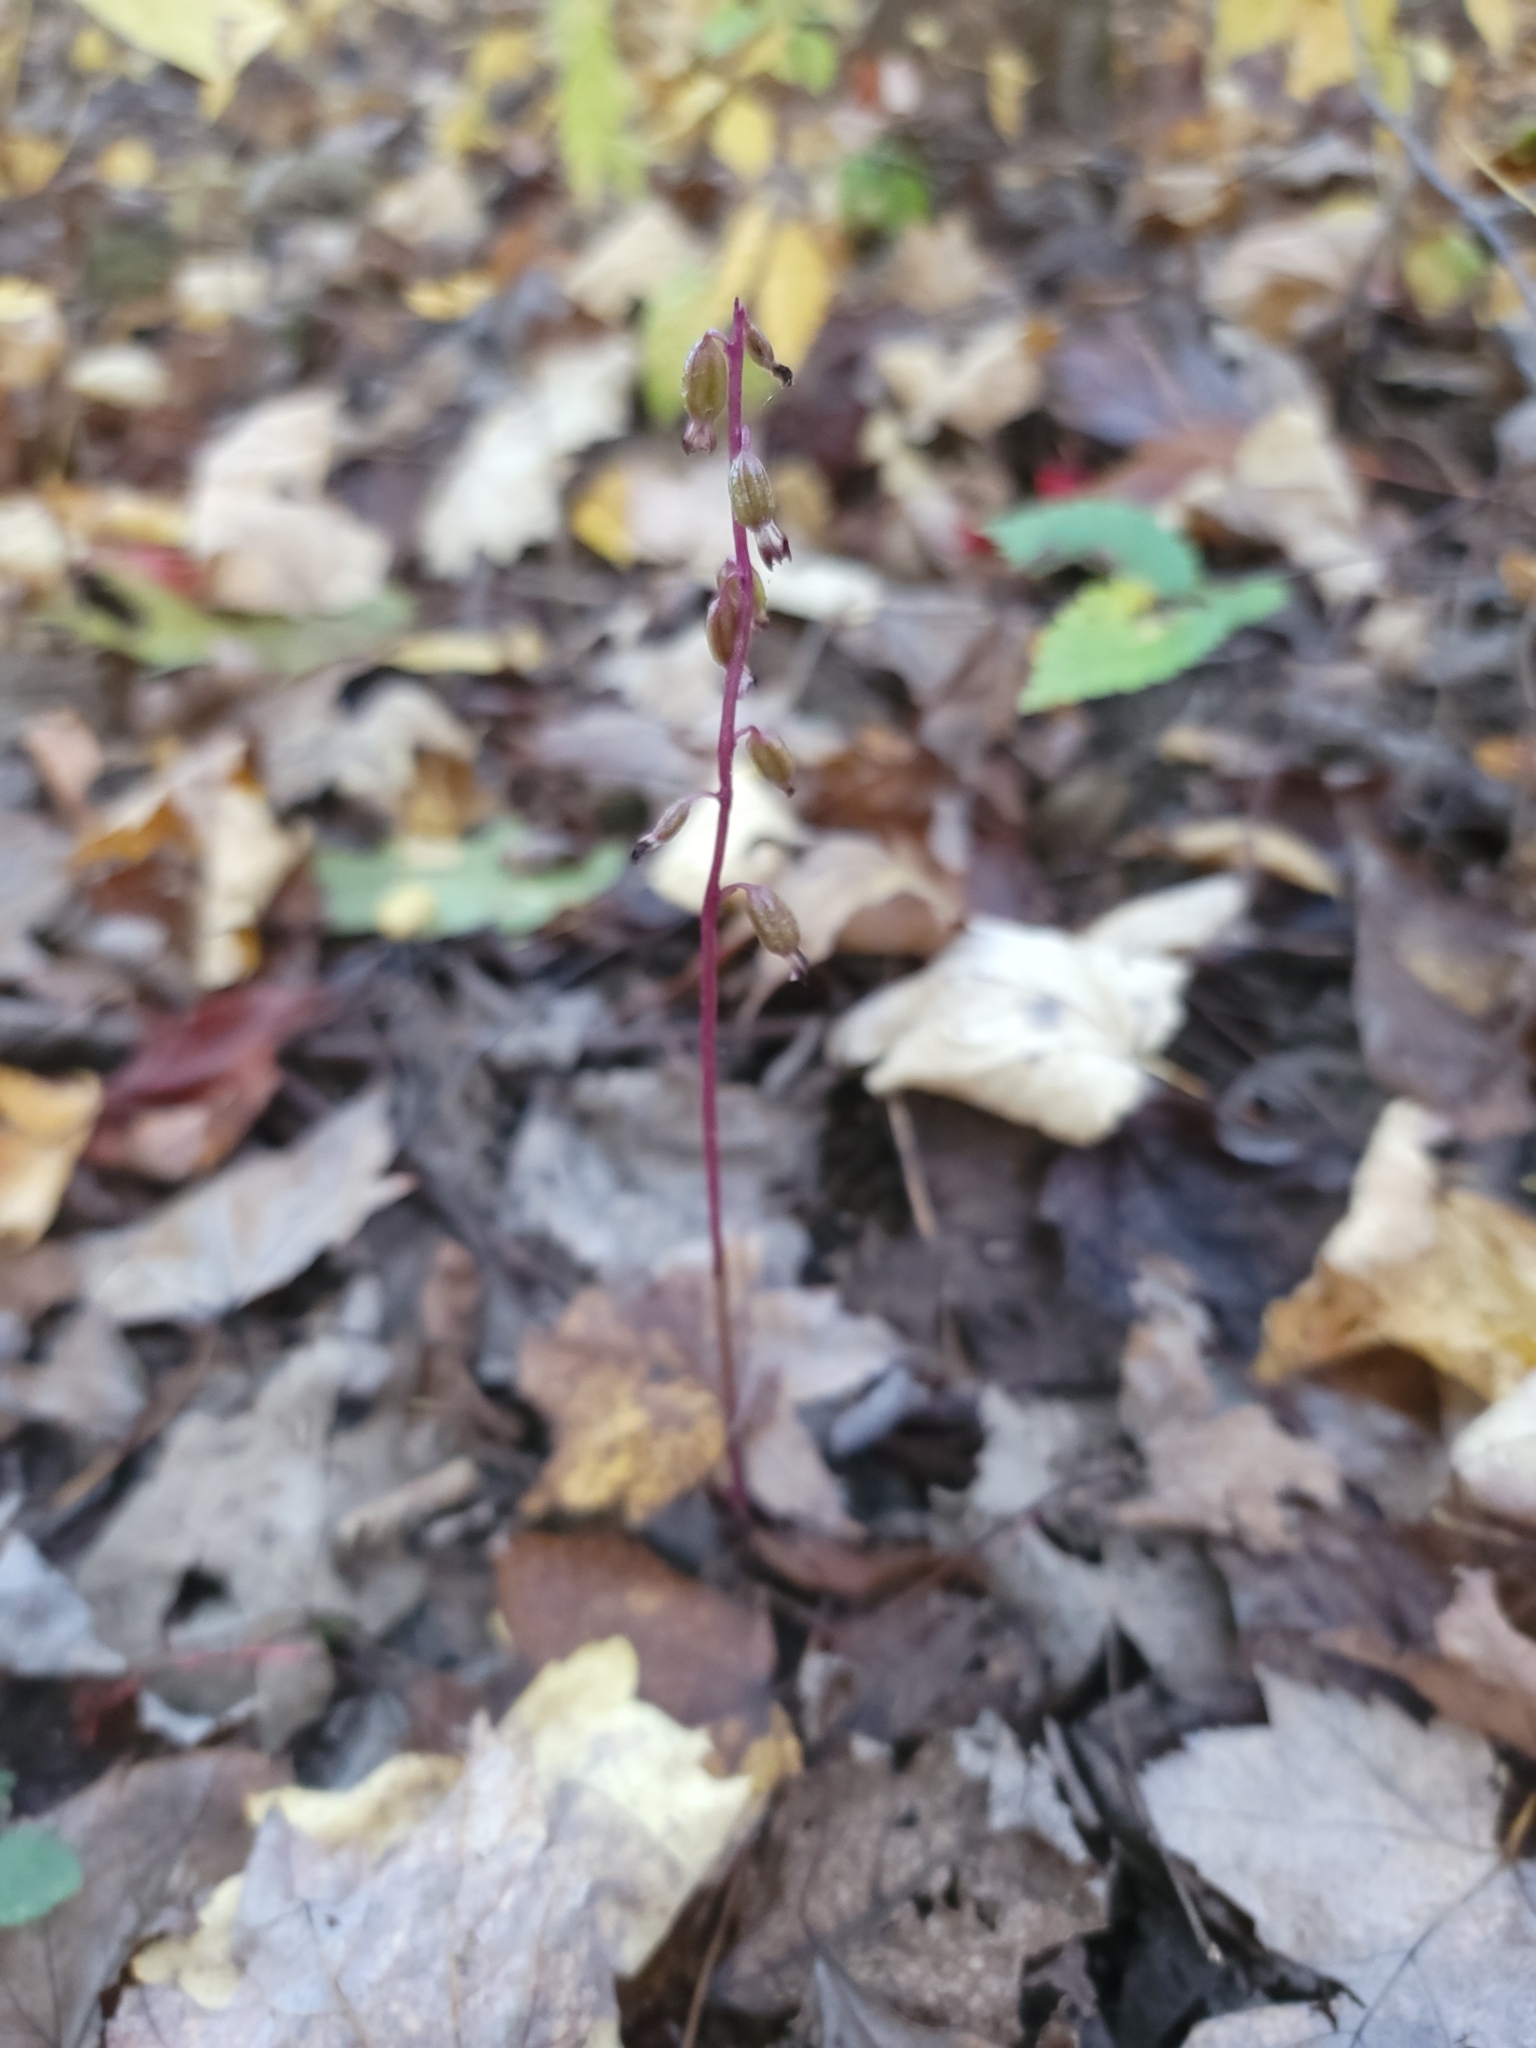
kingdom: Plantae
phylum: Tracheophyta
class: Liliopsida
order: Asparagales
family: Orchidaceae
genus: Corallorhiza
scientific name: Corallorhiza odontorhiza
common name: Autumn coralroot
